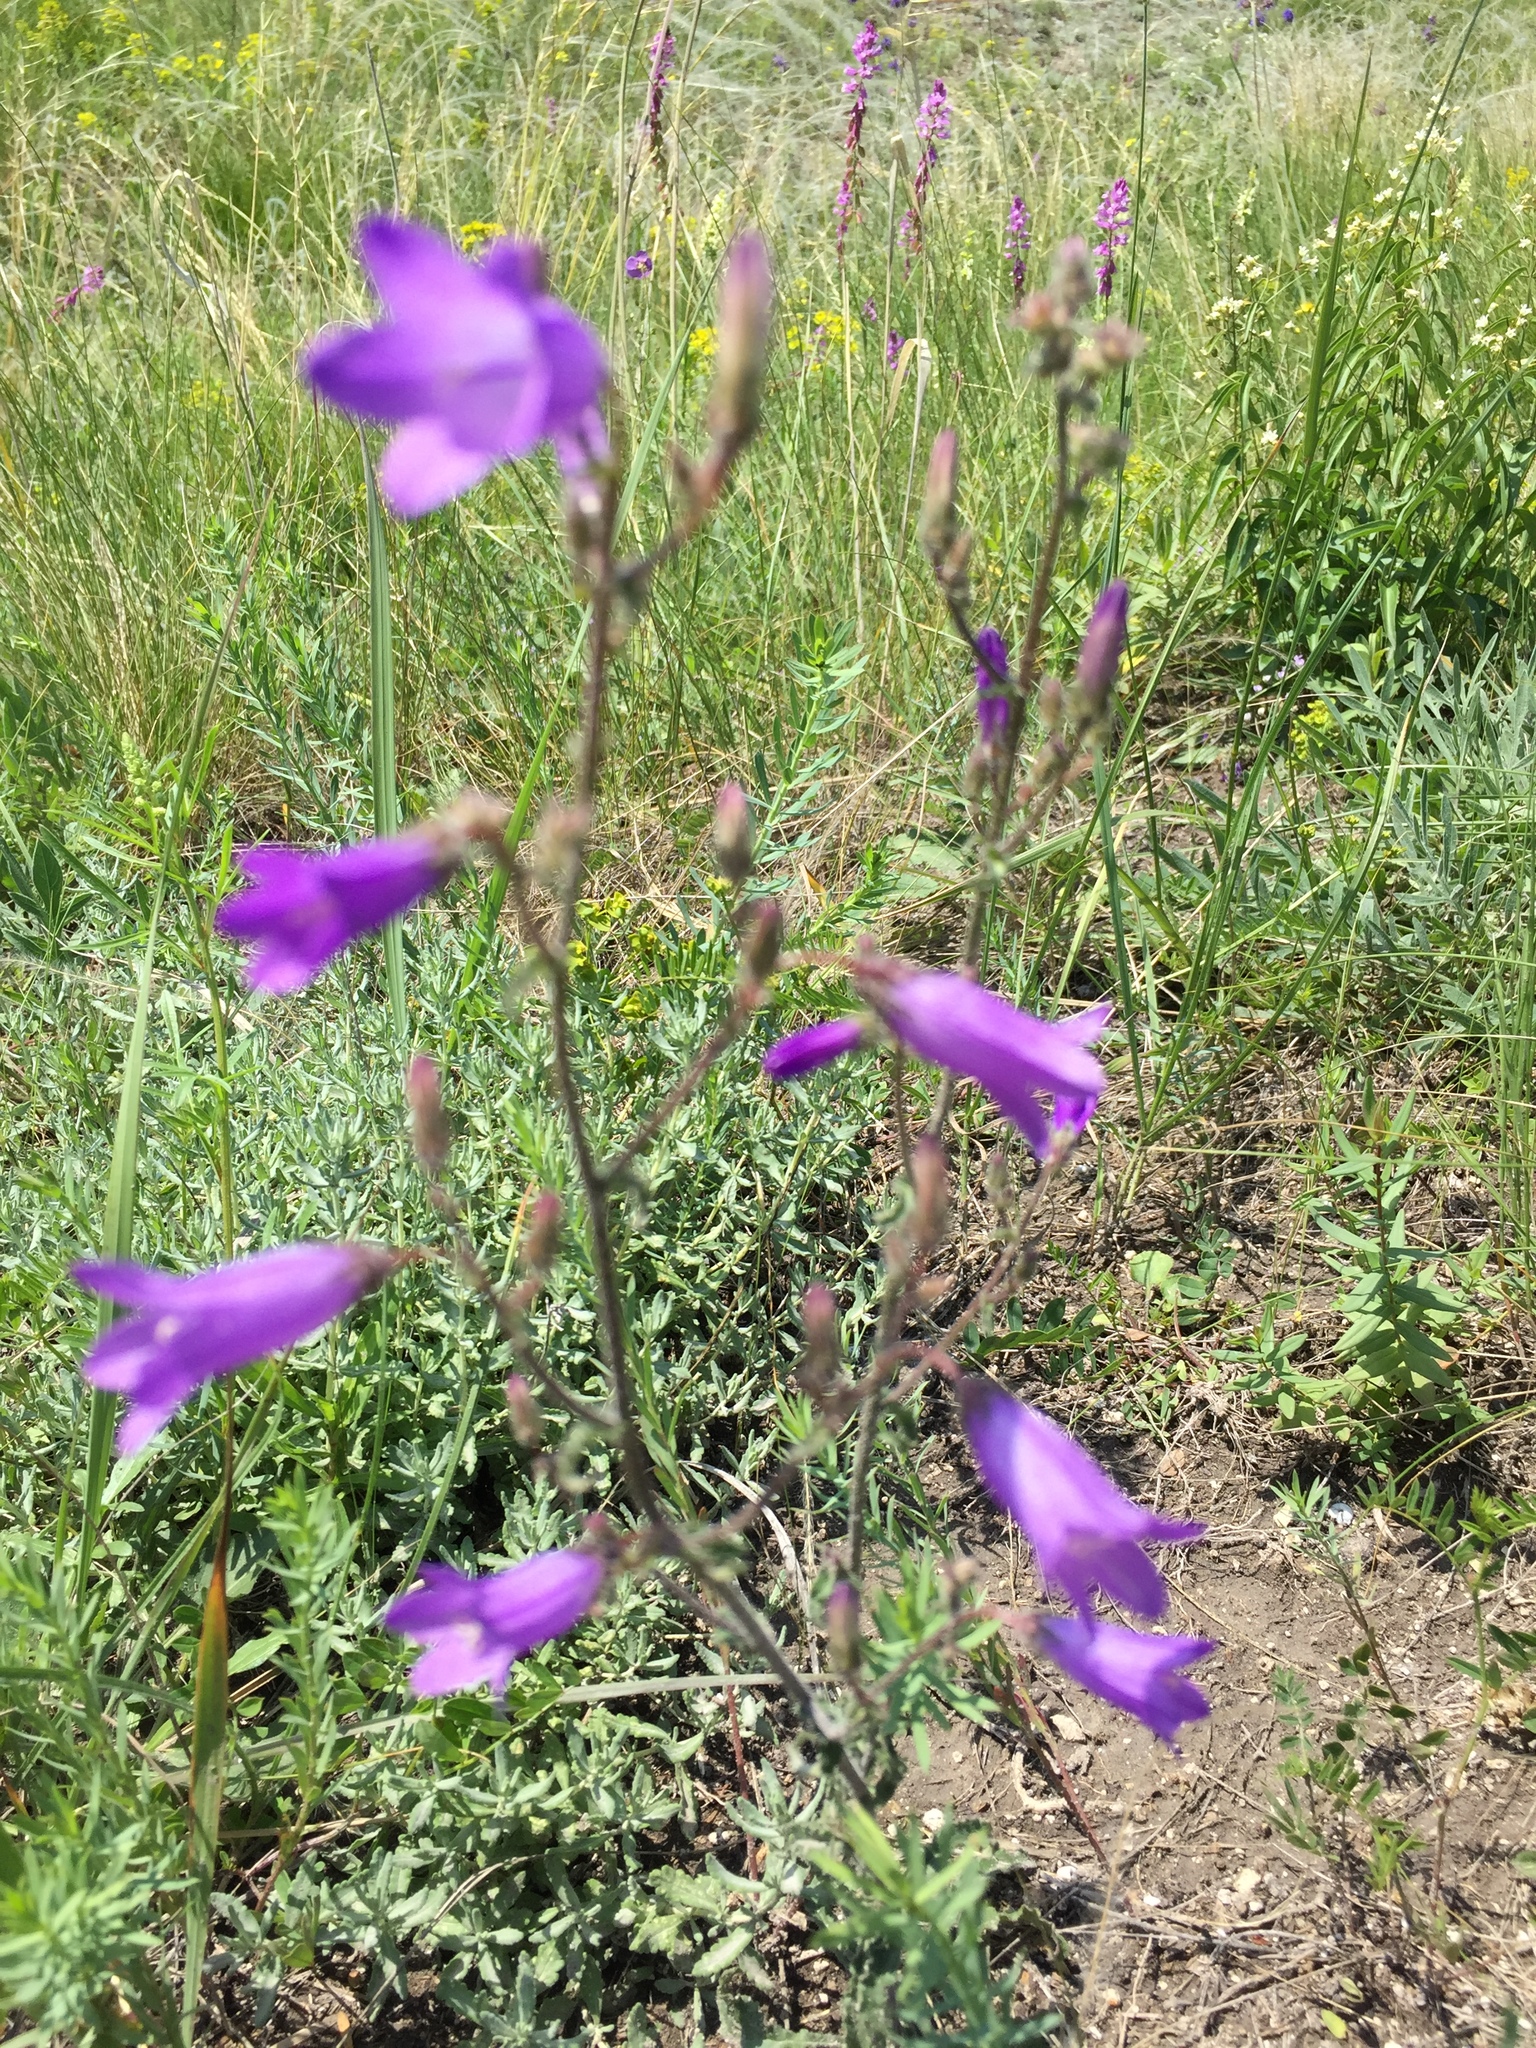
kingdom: Plantae
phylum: Tracheophyta
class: Magnoliopsida
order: Asterales
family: Campanulaceae
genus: Campanula
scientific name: Campanula sibirica
